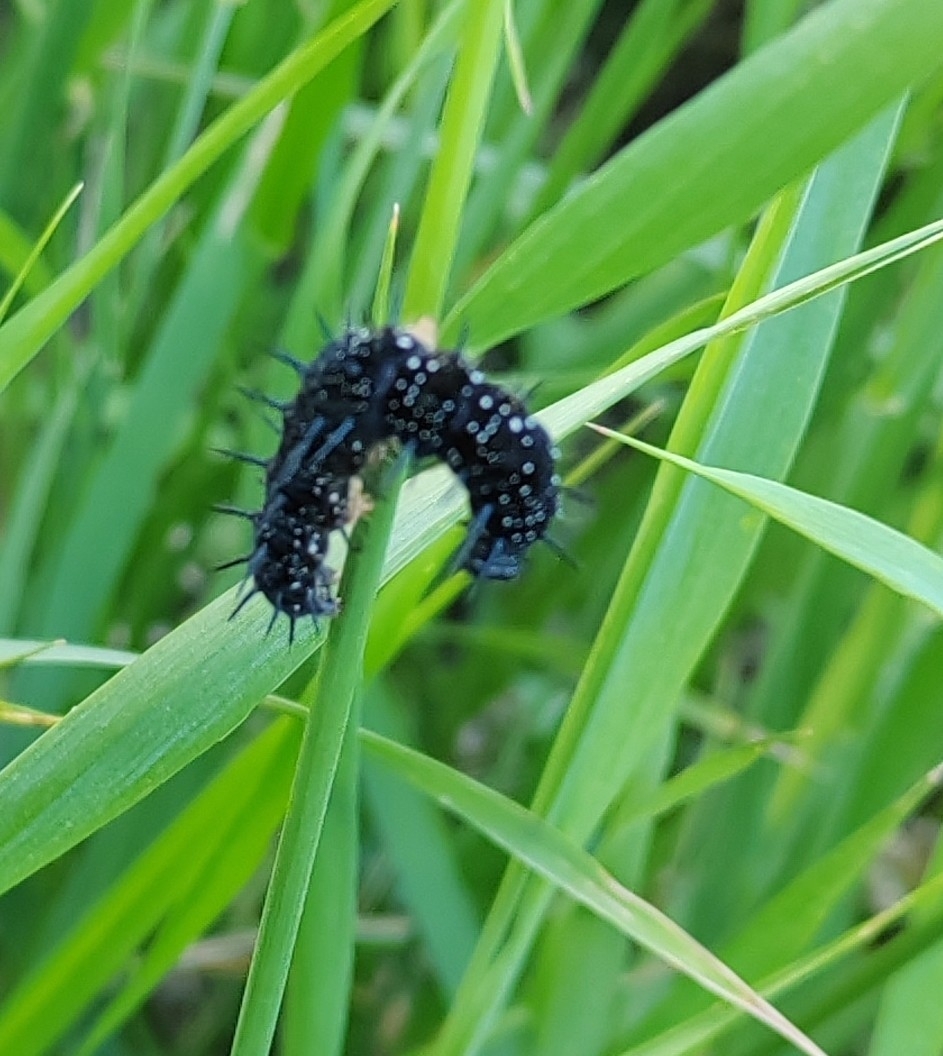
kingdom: Animalia
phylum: Arthropoda
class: Insecta
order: Lepidoptera
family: Nymphalidae
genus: Aglais
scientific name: Aglais io
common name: Peacock
